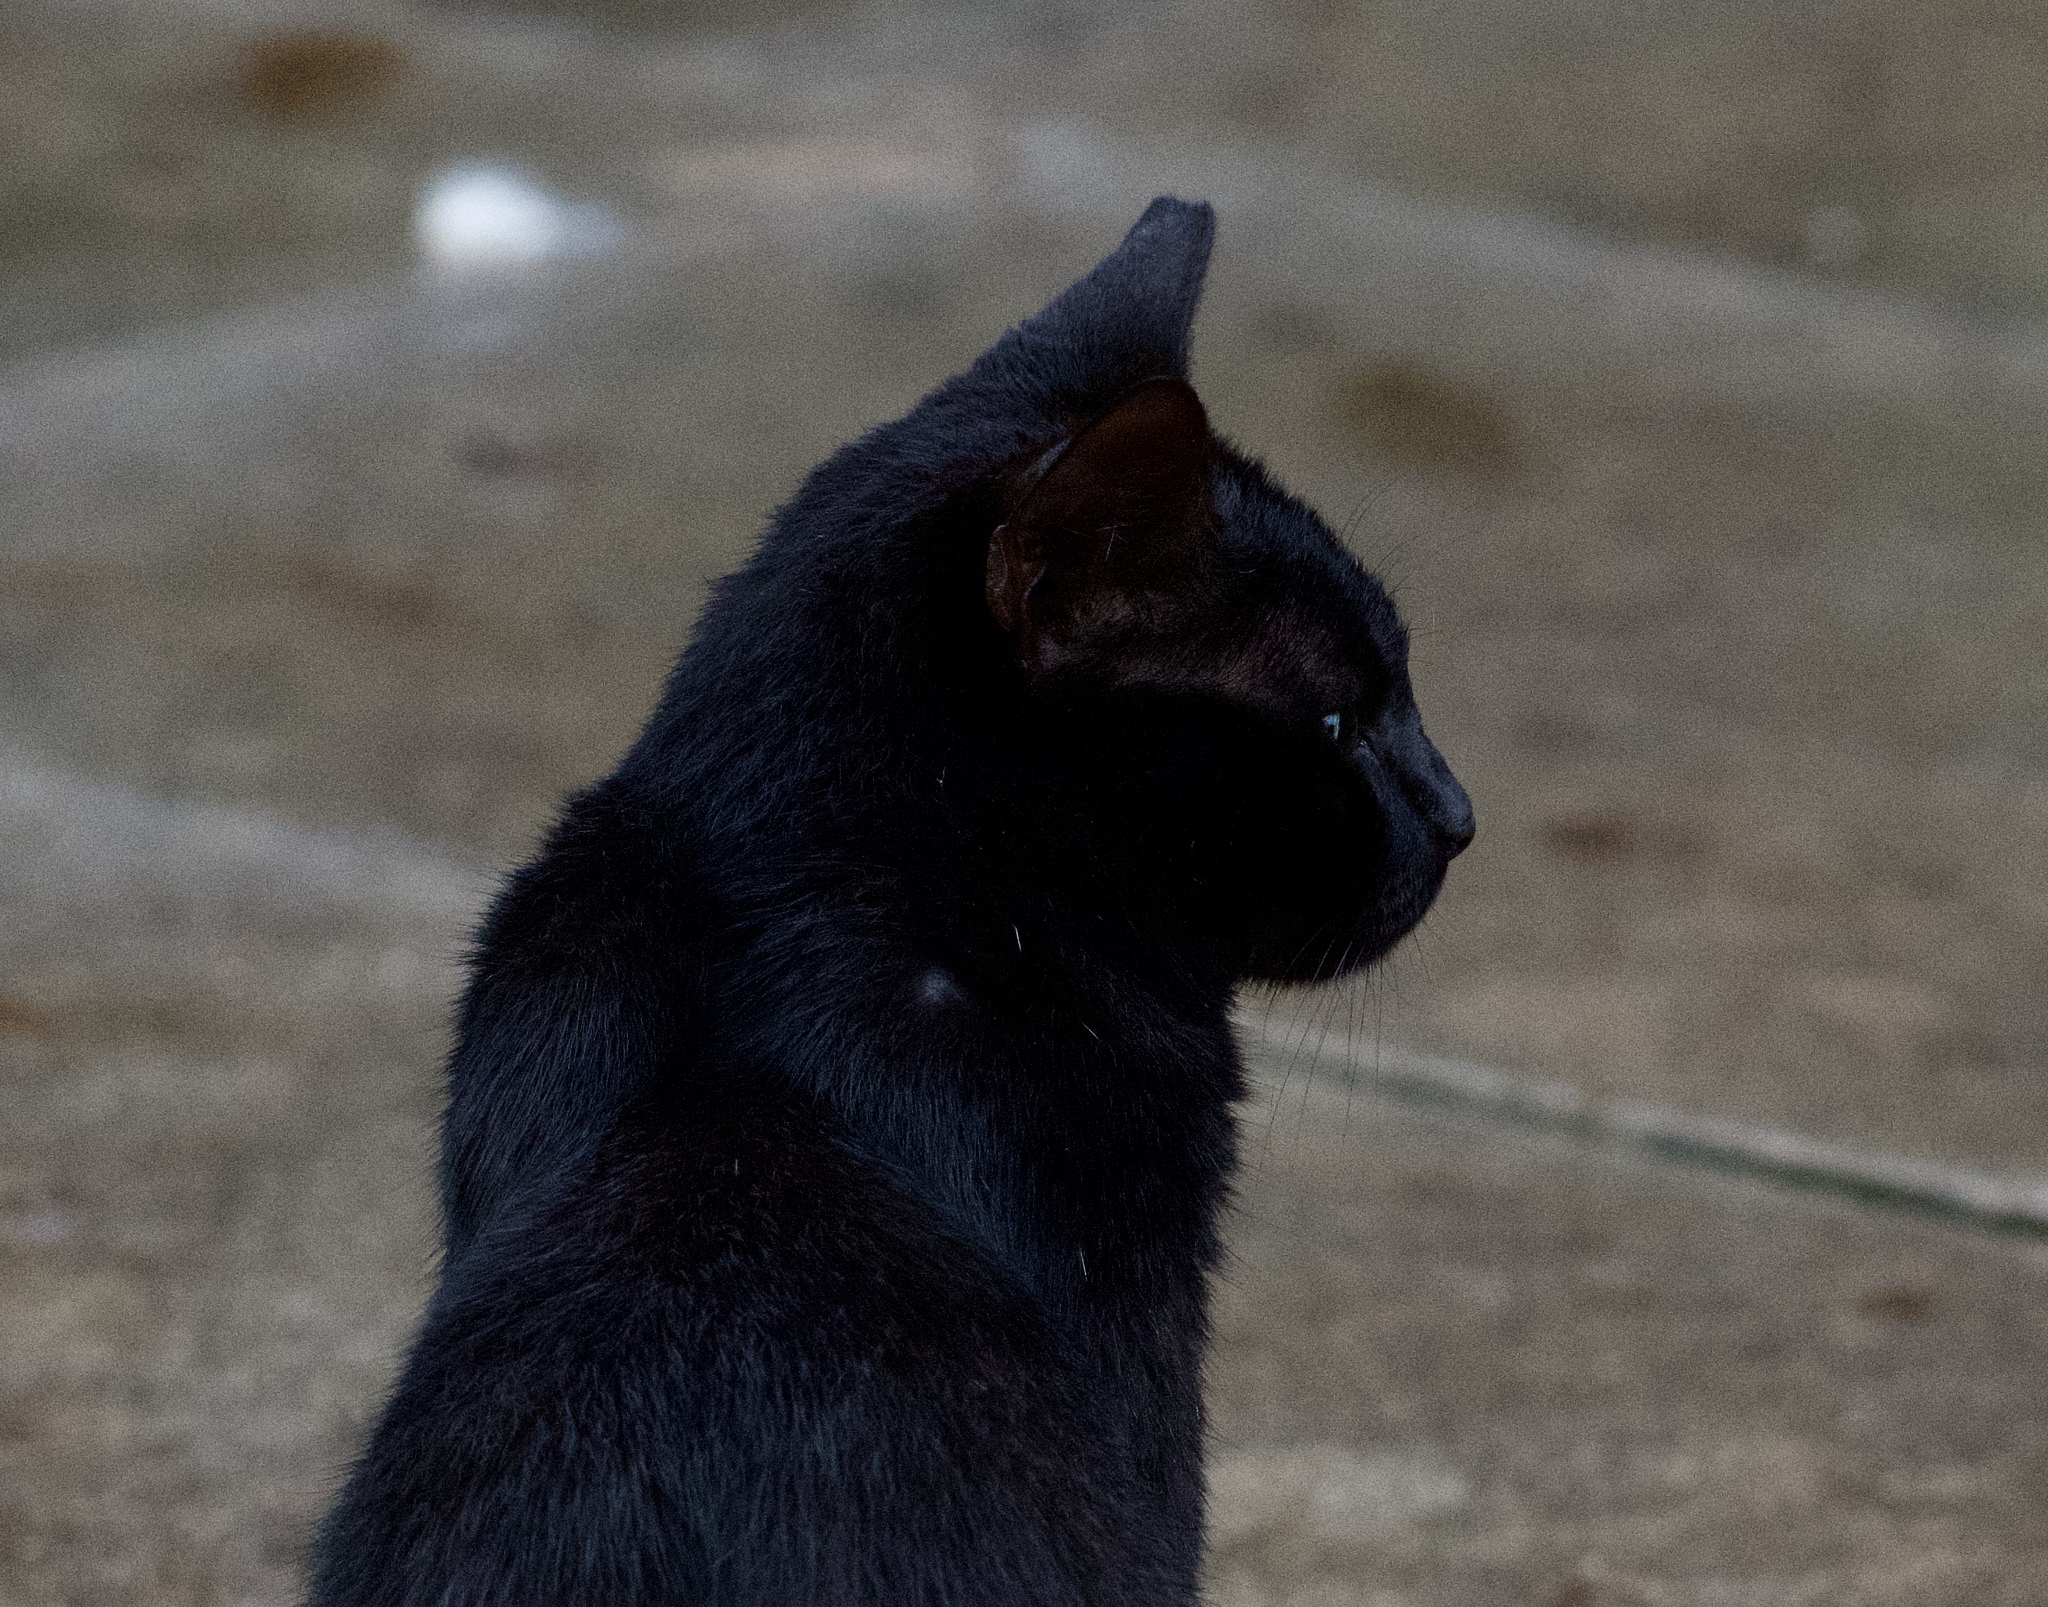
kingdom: Animalia
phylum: Chordata
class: Mammalia
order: Carnivora
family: Felidae
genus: Felis
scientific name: Felis catus
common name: Domestic cat
